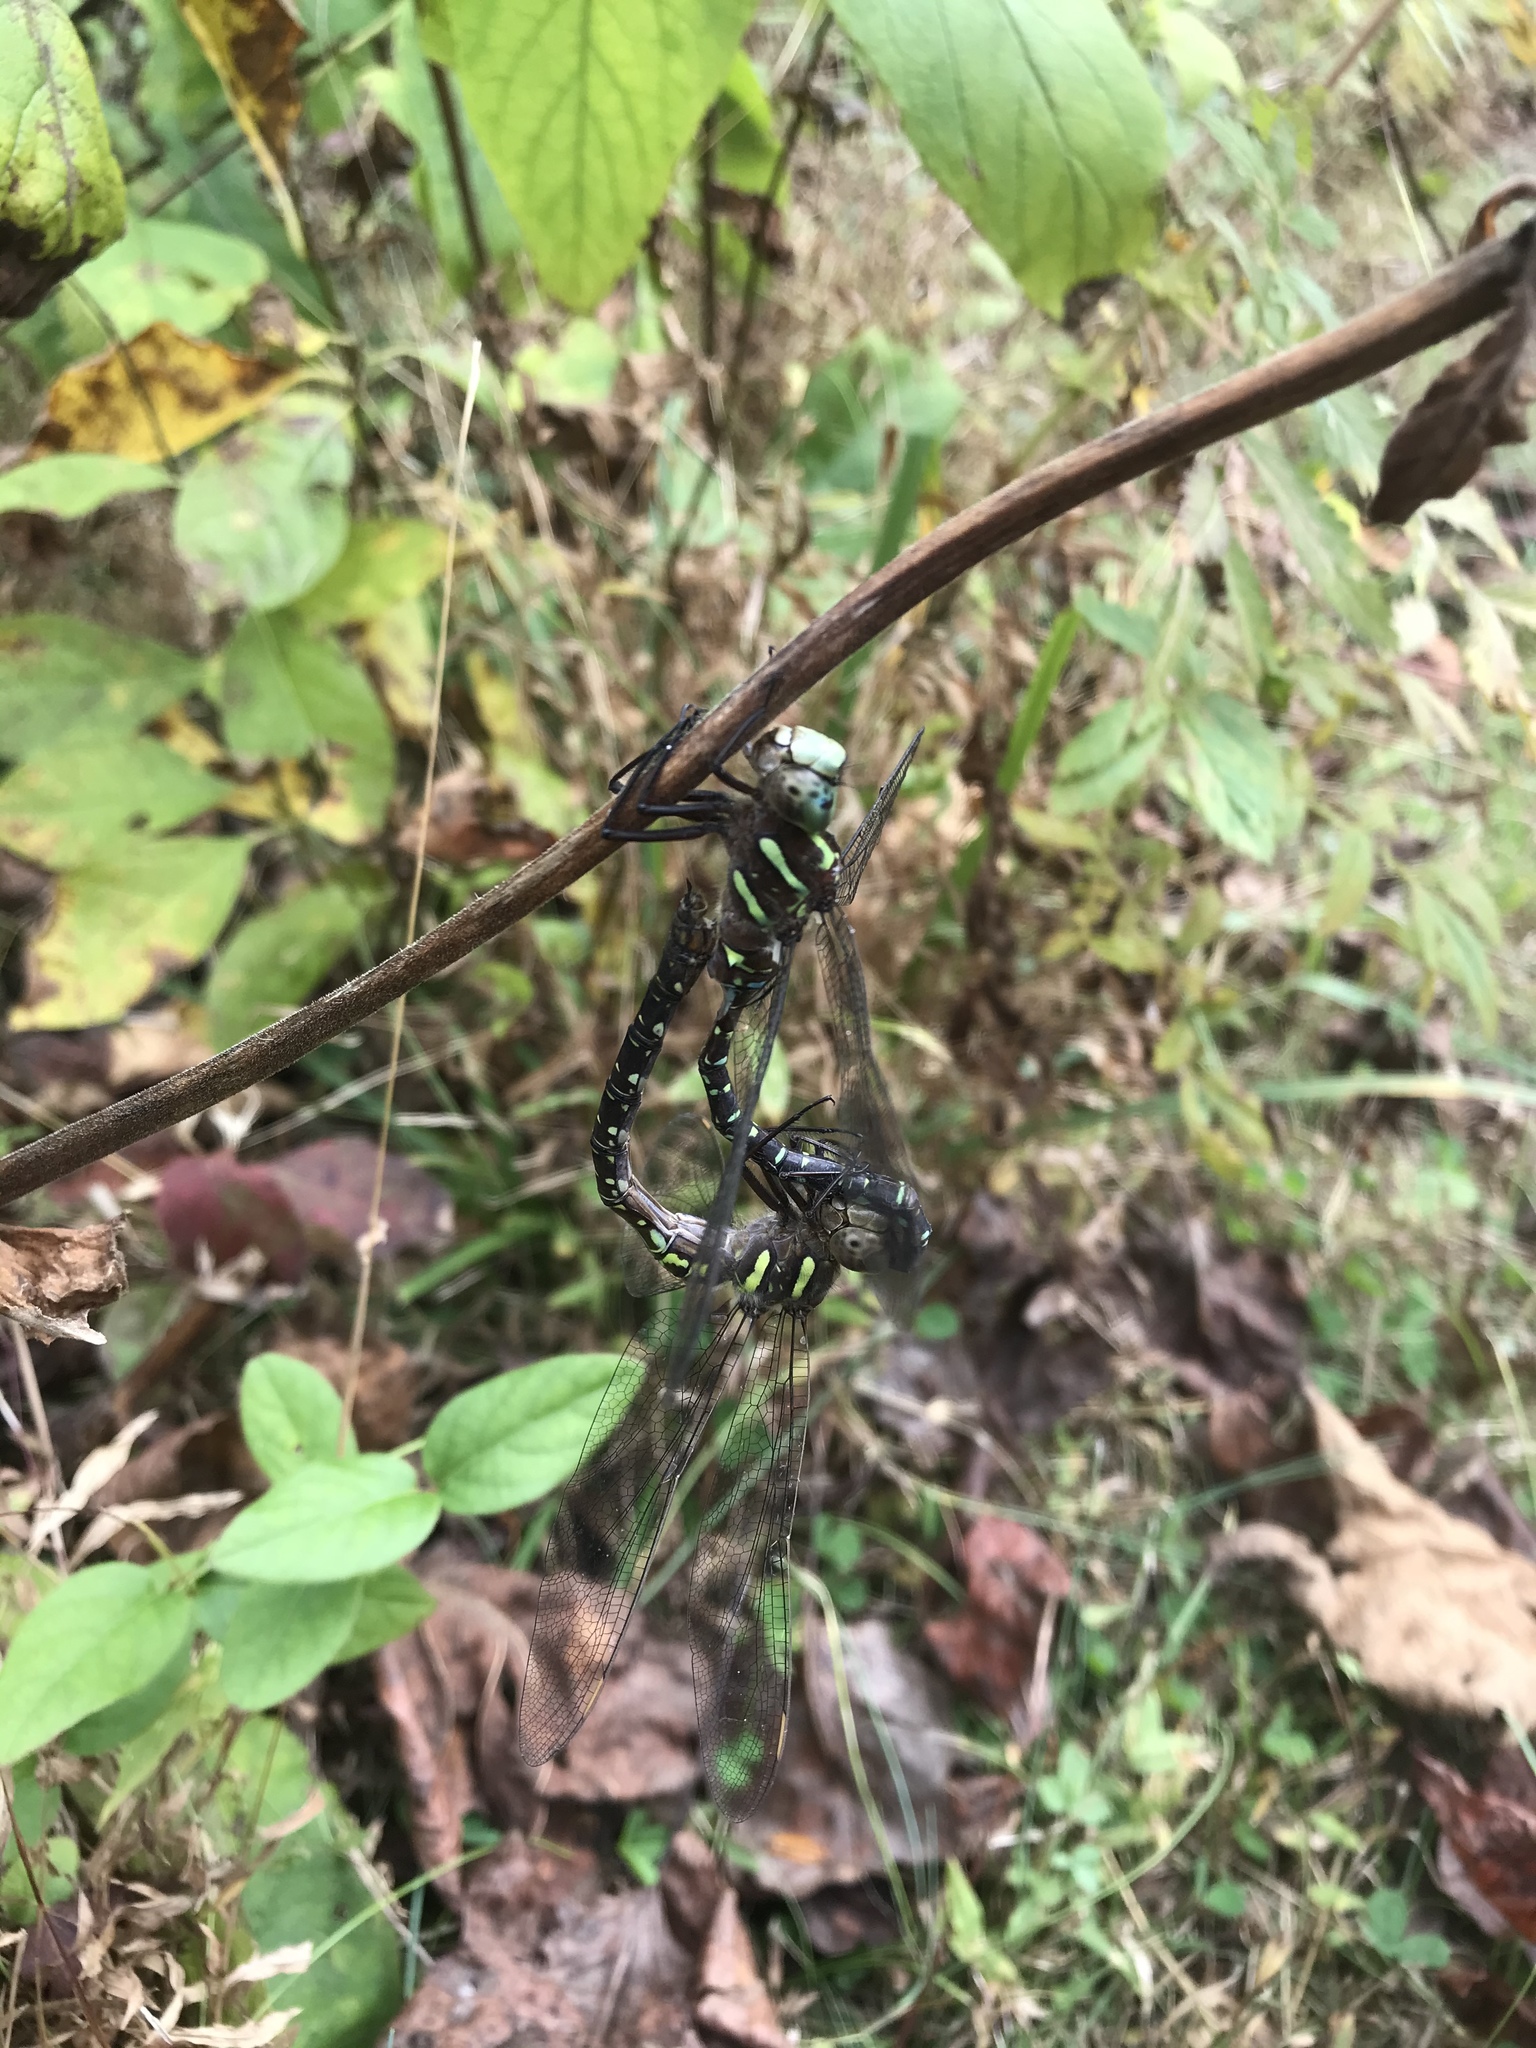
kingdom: Animalia
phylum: Arthropoda
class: Insecta
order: Odonata
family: Aeshnidae
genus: Aeshna
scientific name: Aeshna umbrosa
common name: Shadow darner
